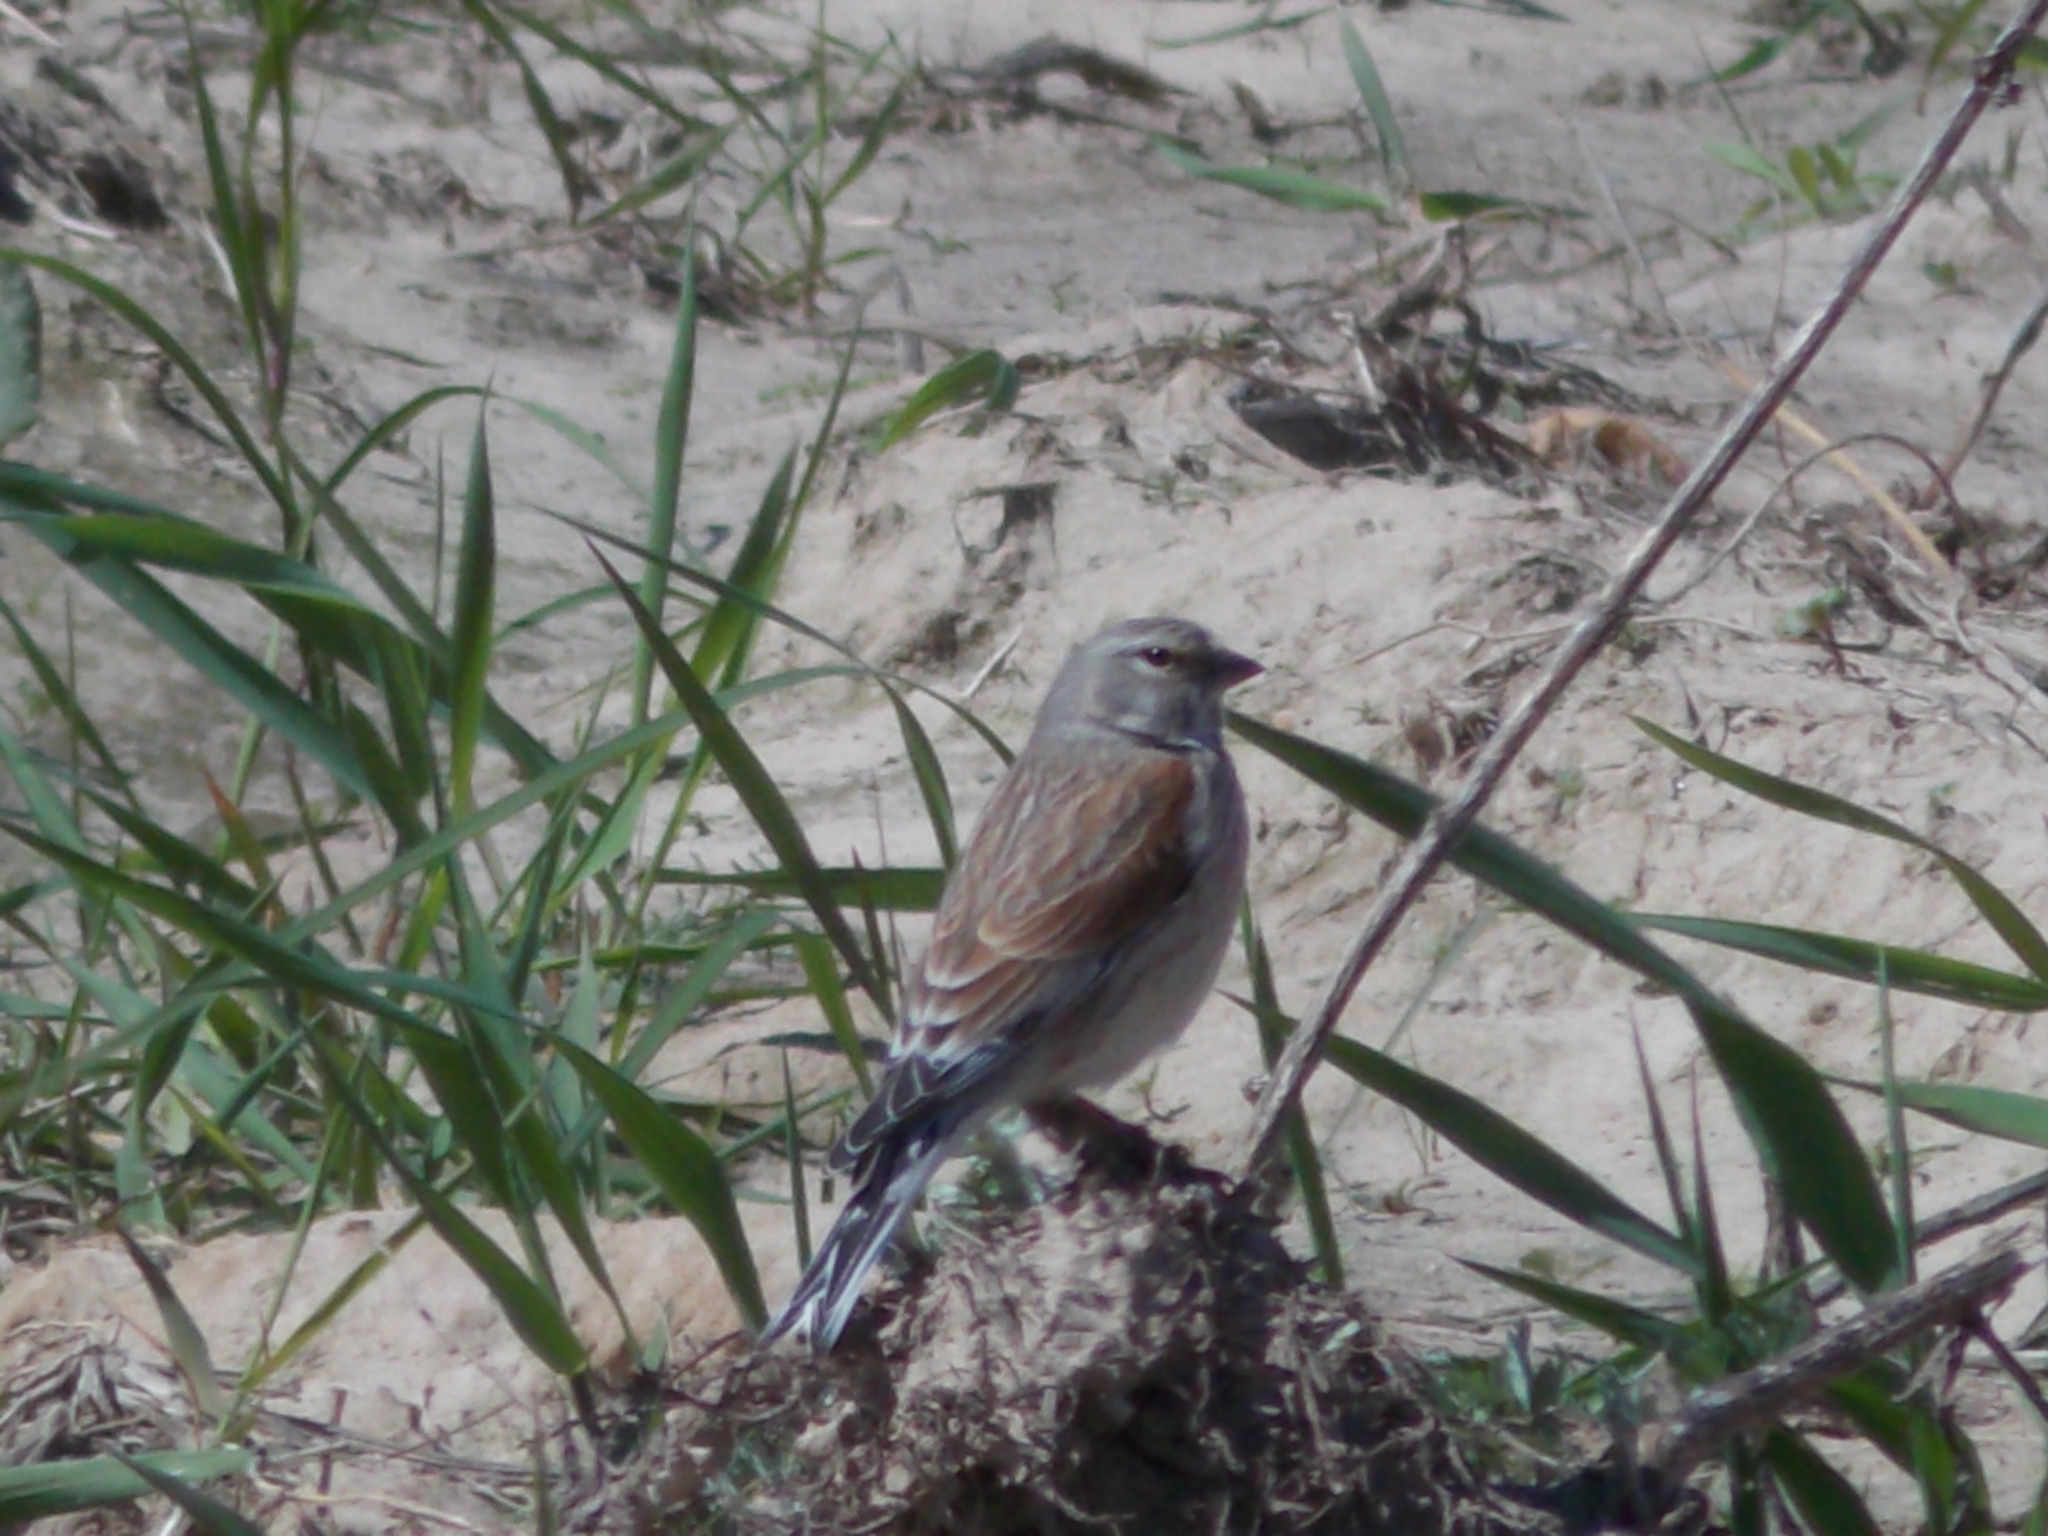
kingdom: Animalia
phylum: Chordata
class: Aves
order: Passeriformes
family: Fringillidae
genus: Linaria
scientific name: Linaria cannabina
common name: Common linnet
